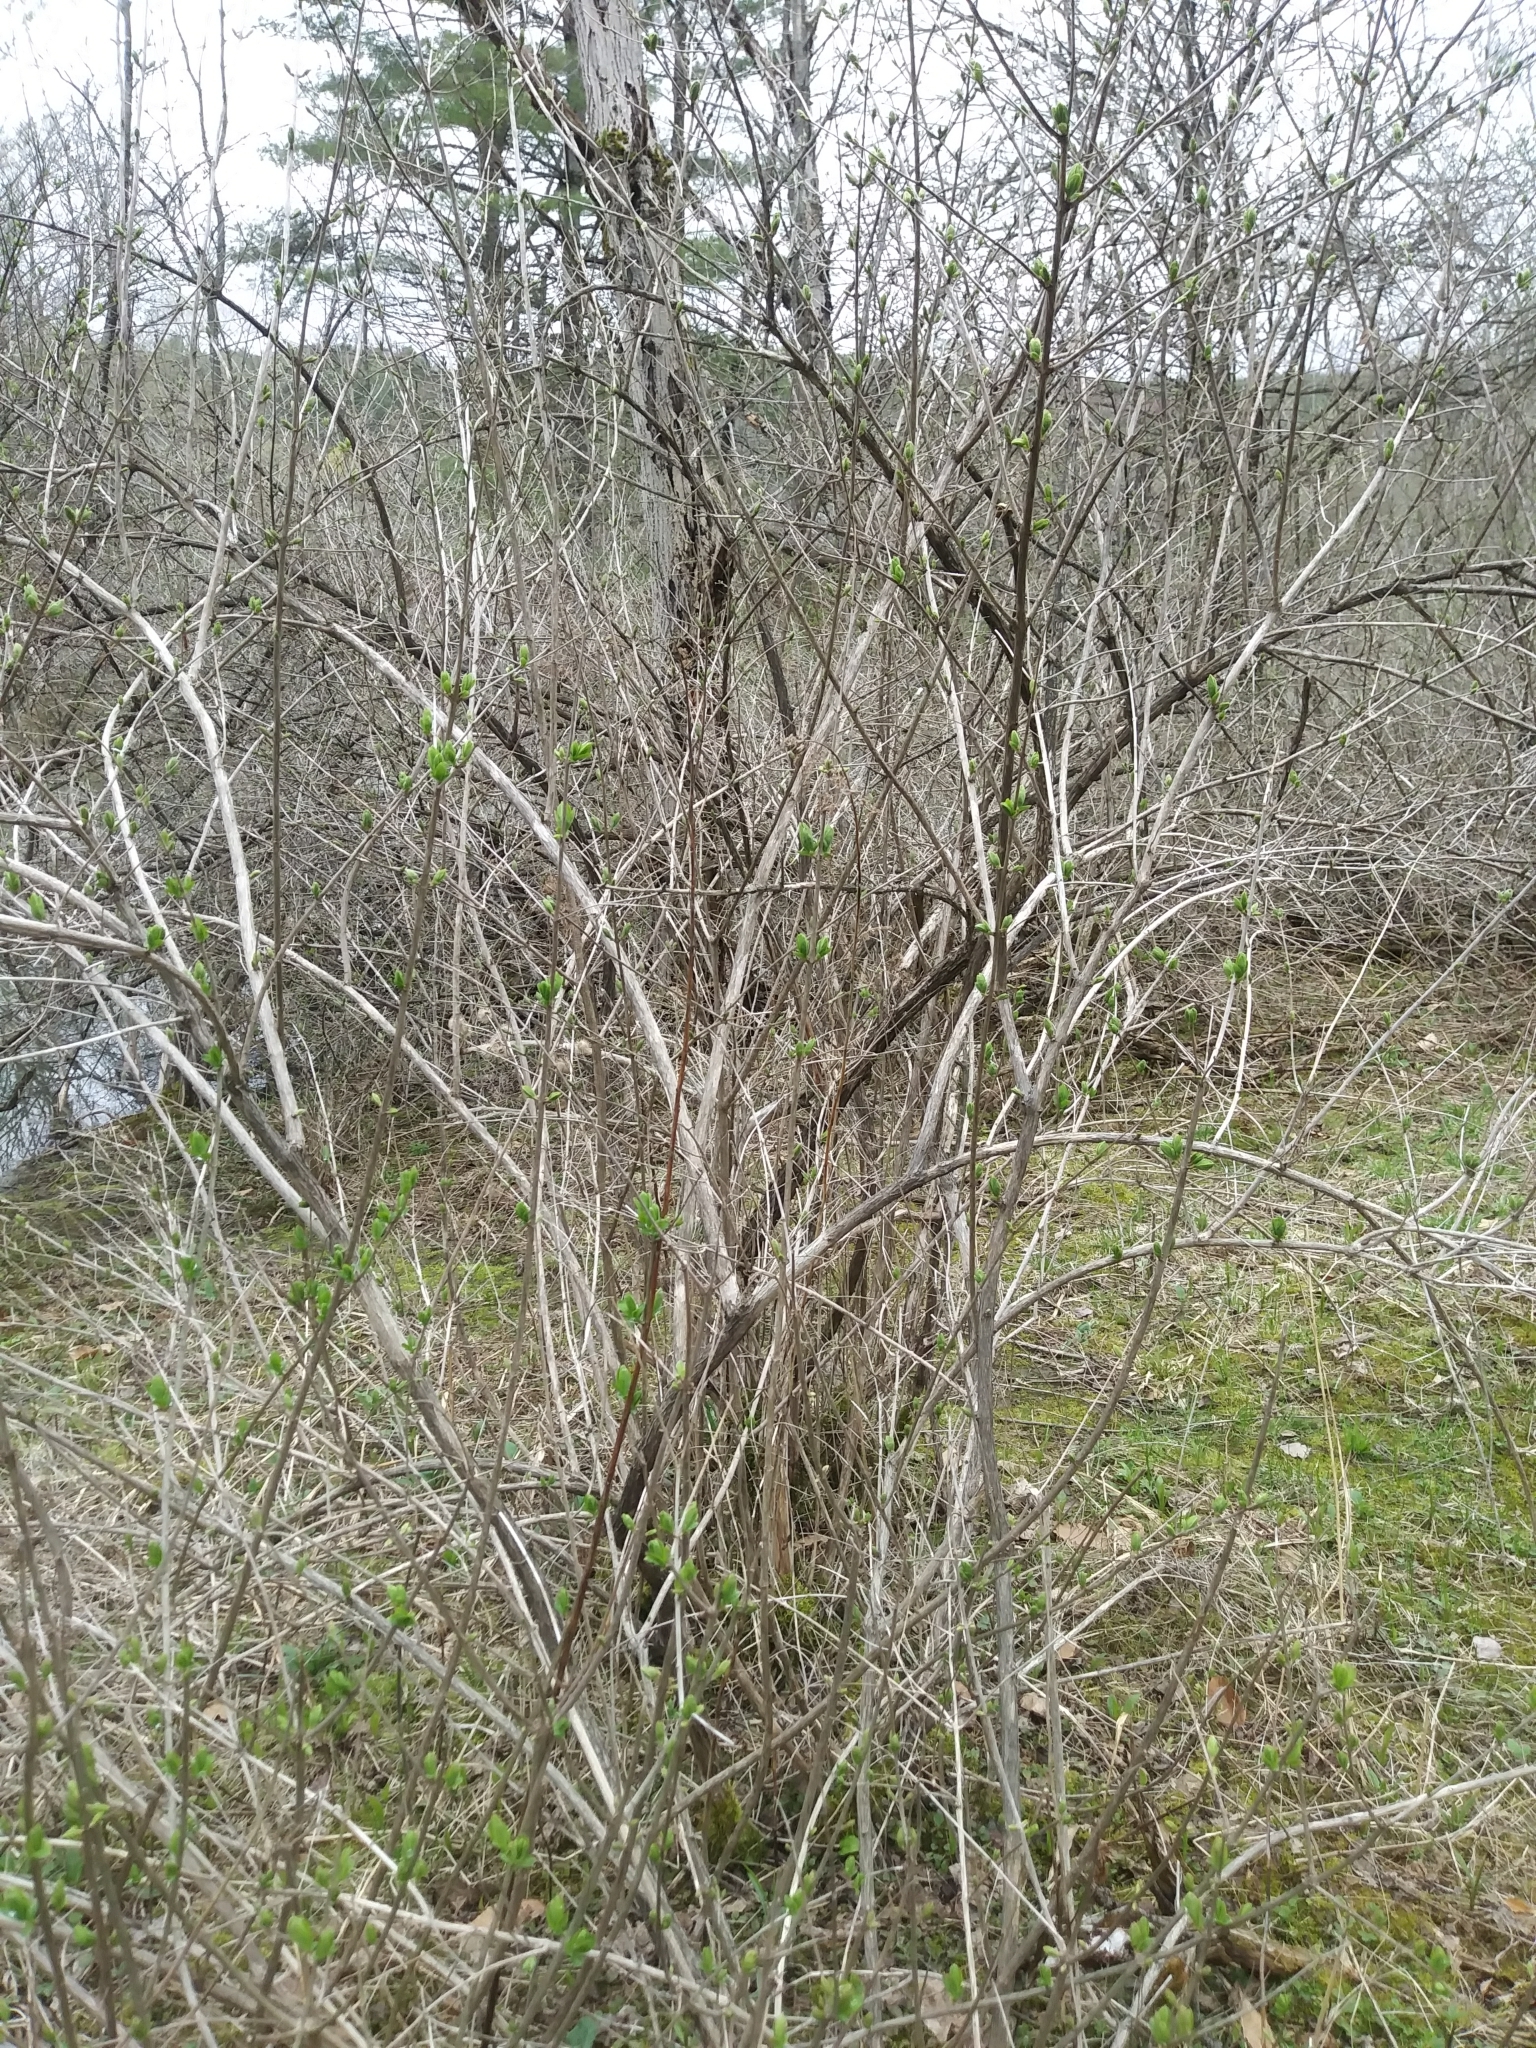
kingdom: Plantae
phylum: Tracheophyta
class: Magnoliopsida
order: Dipsacales
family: Caprifoliaceae
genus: Lonicera
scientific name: Lonicera
